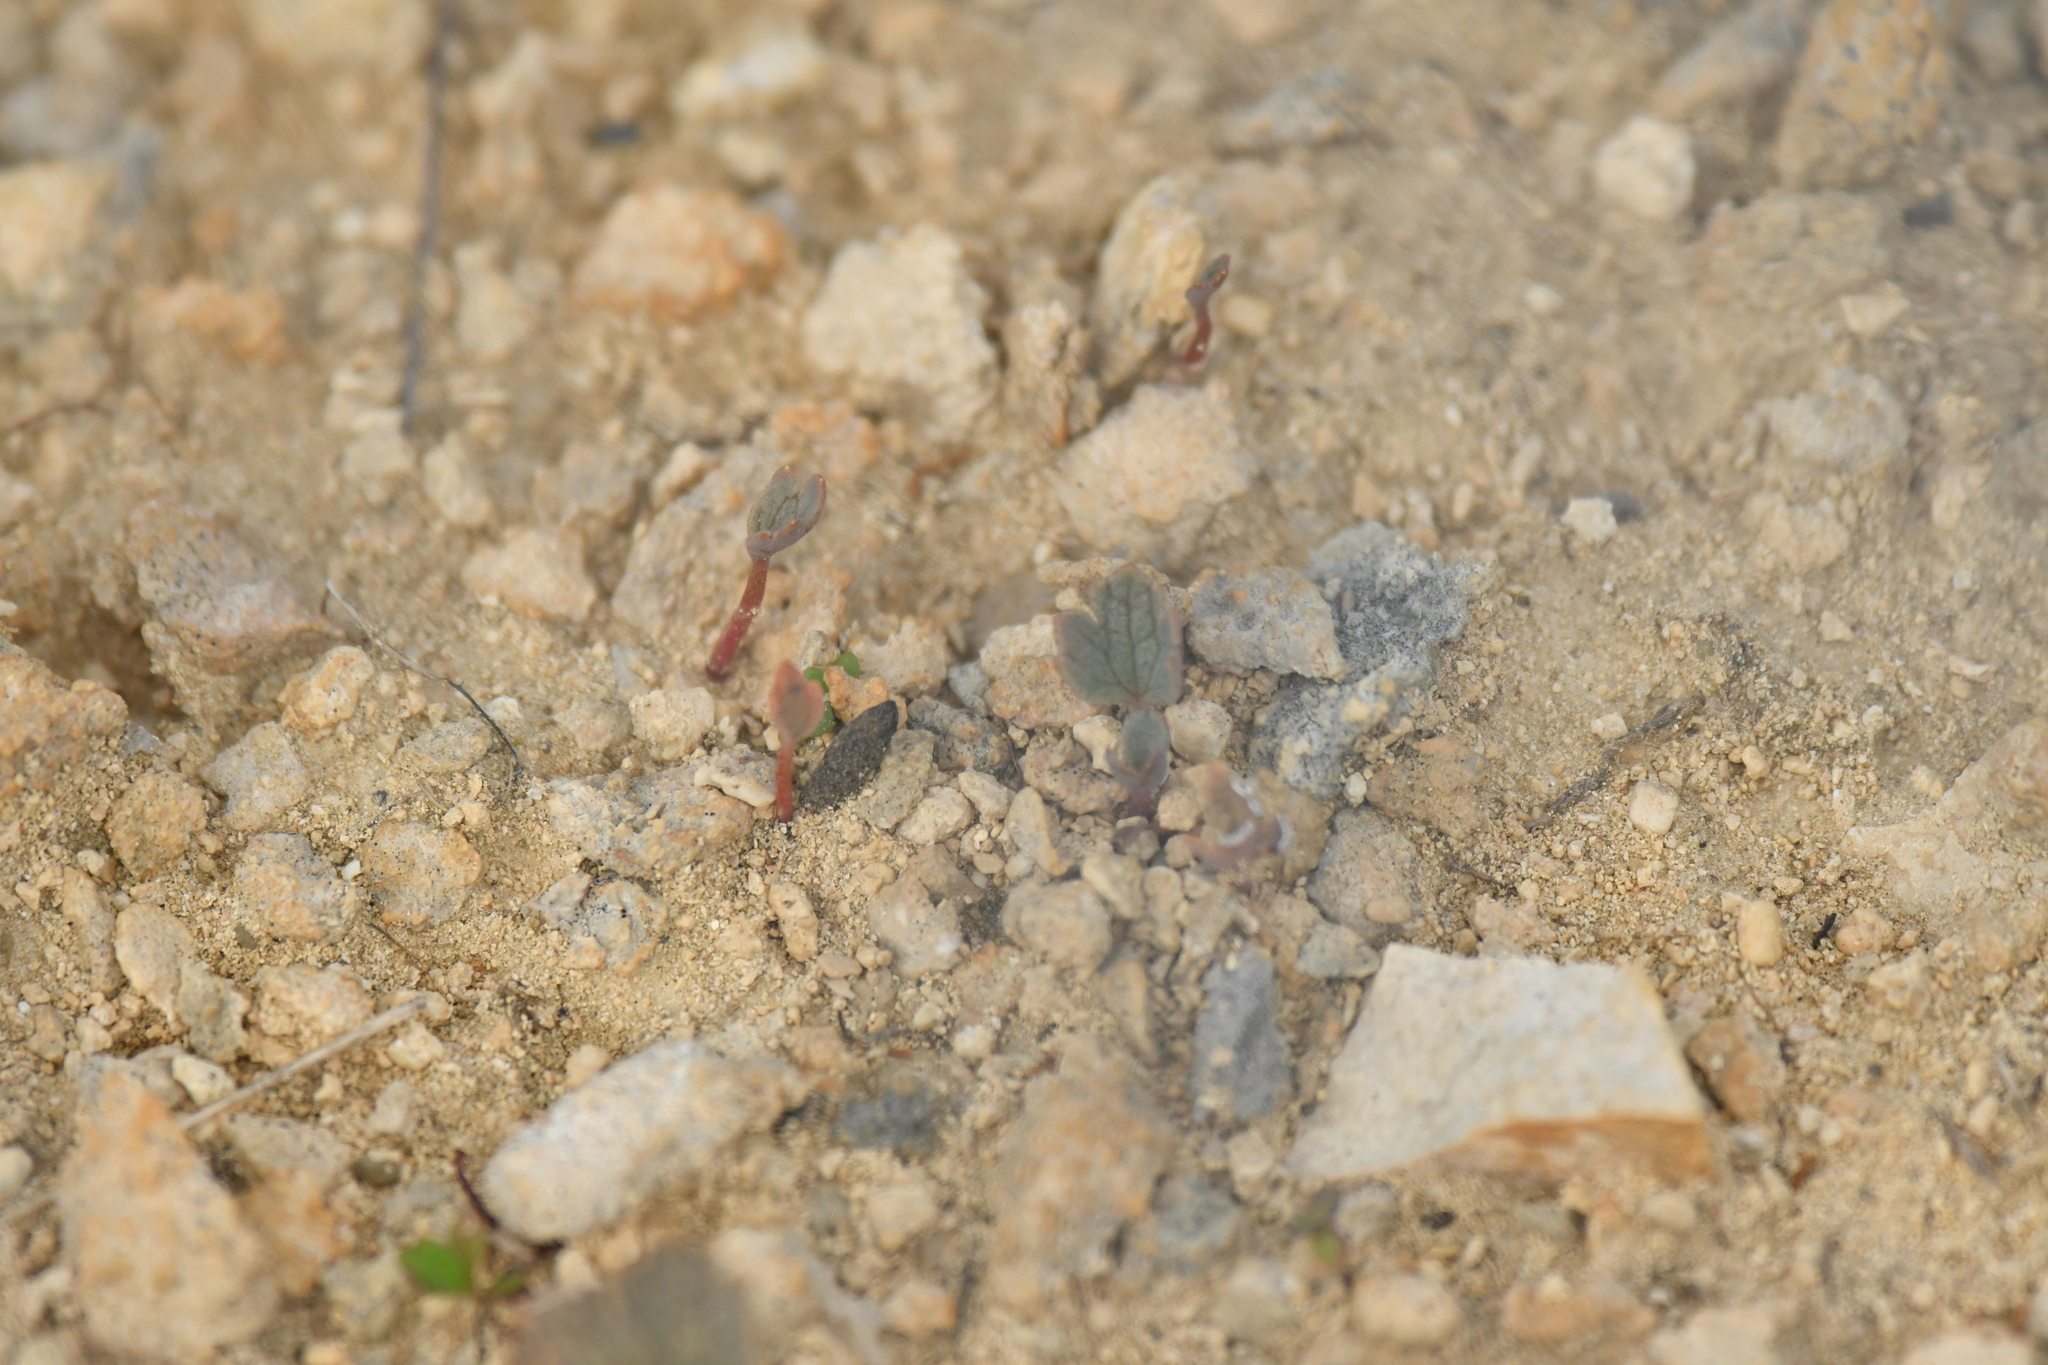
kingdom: Plantae
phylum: Tracheophyta
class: Magnoliopsida
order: Ranunculales
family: Ranunculaceae
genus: Ranunculus
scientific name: Ranunculus paucifolius
